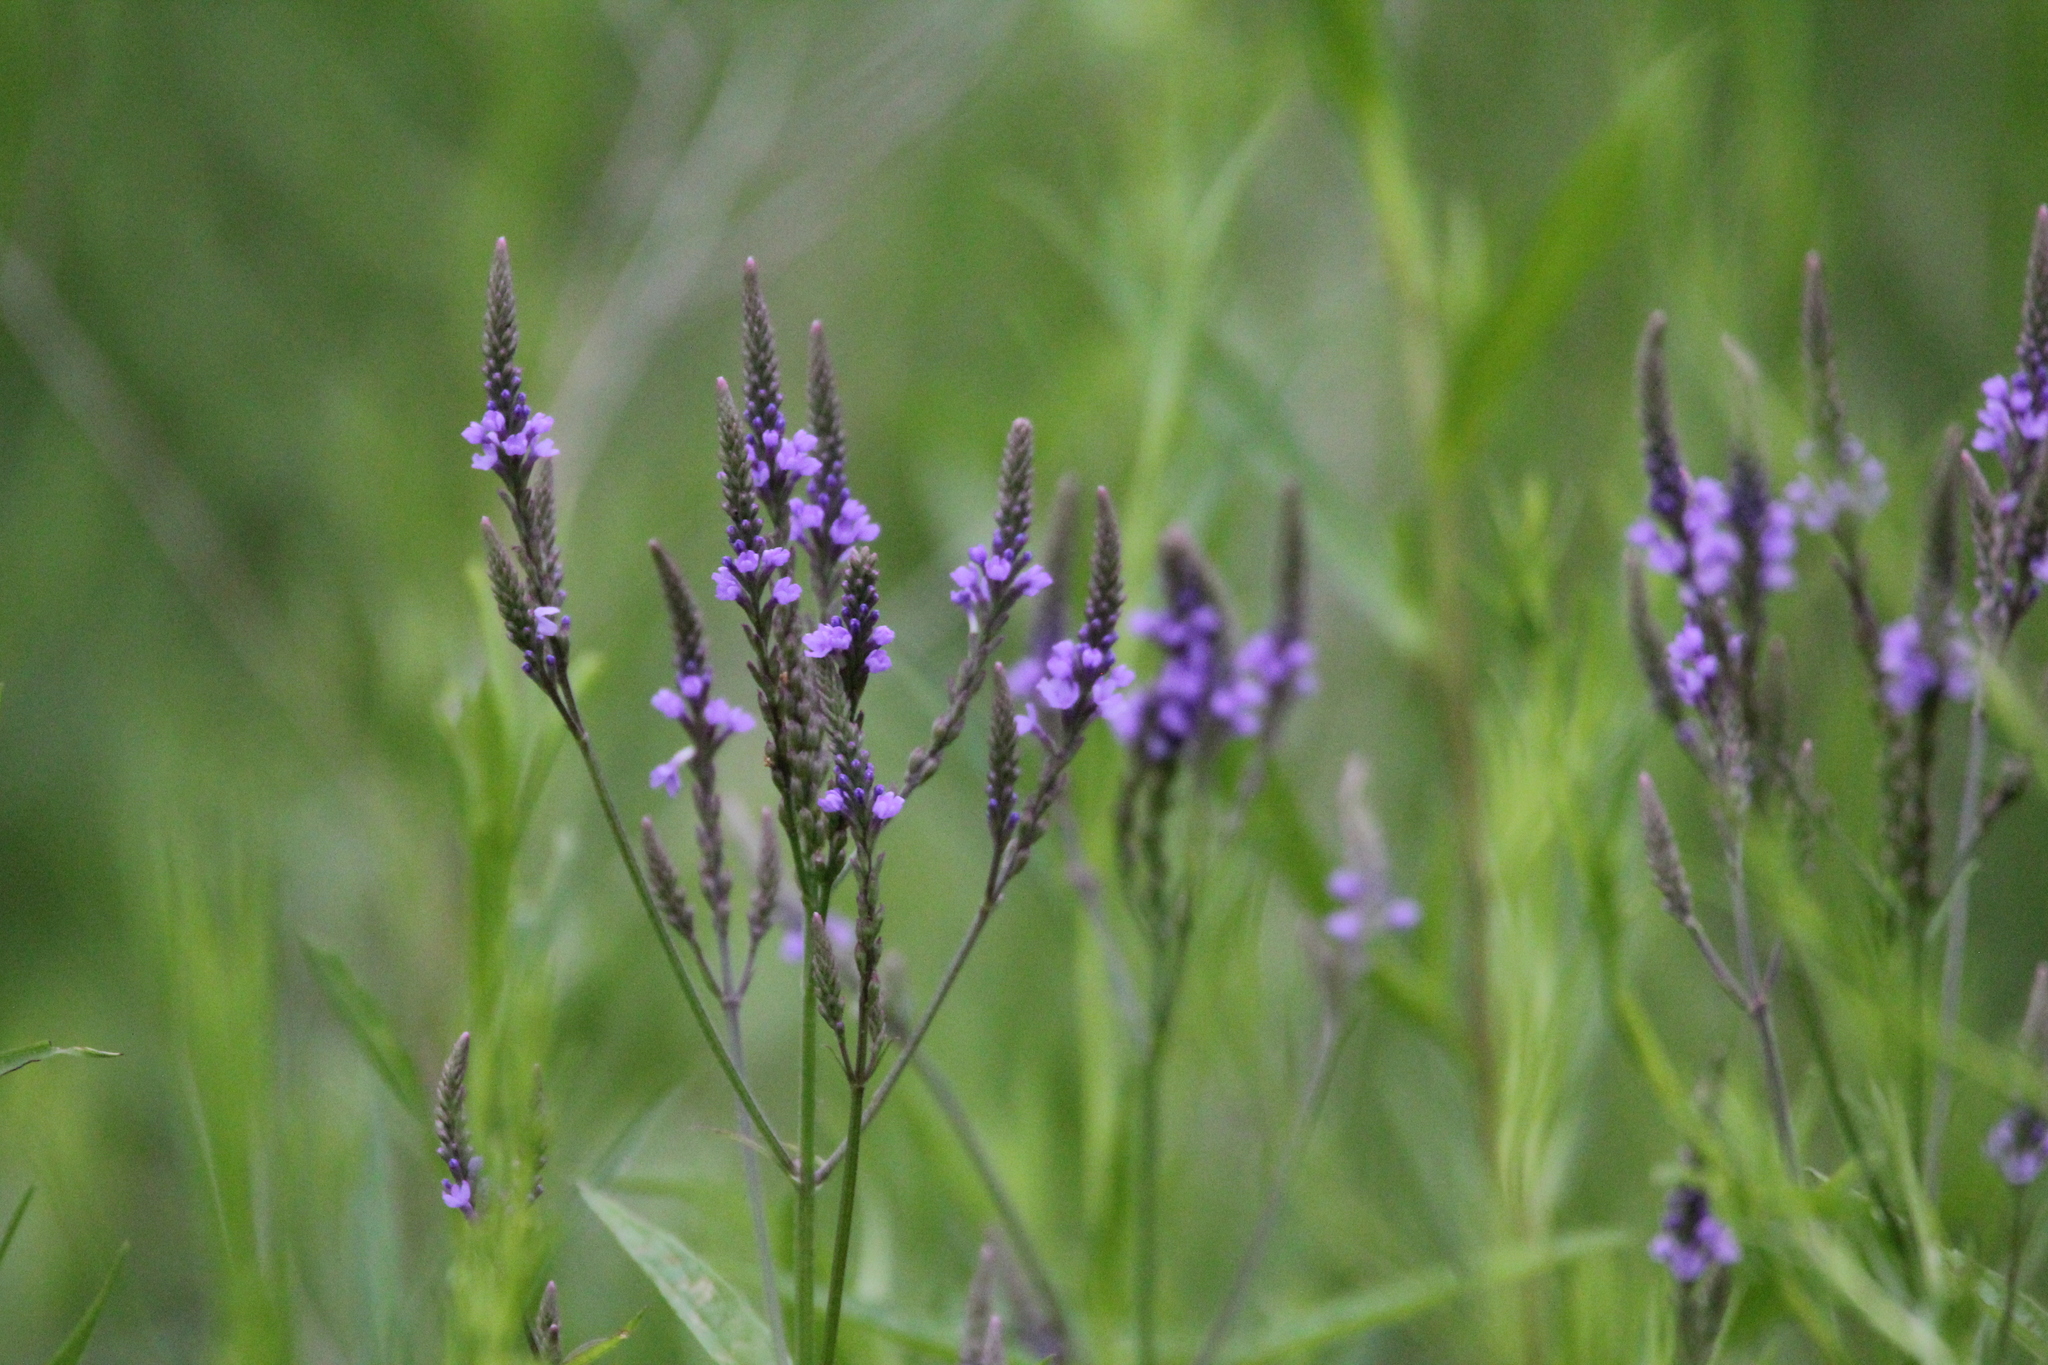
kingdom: Plantae
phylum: Tracheophyta
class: Magnoliopsida
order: Lamiales
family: Verbenaceae
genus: Verbena
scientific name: Verbena hastata
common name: American blue vervain
